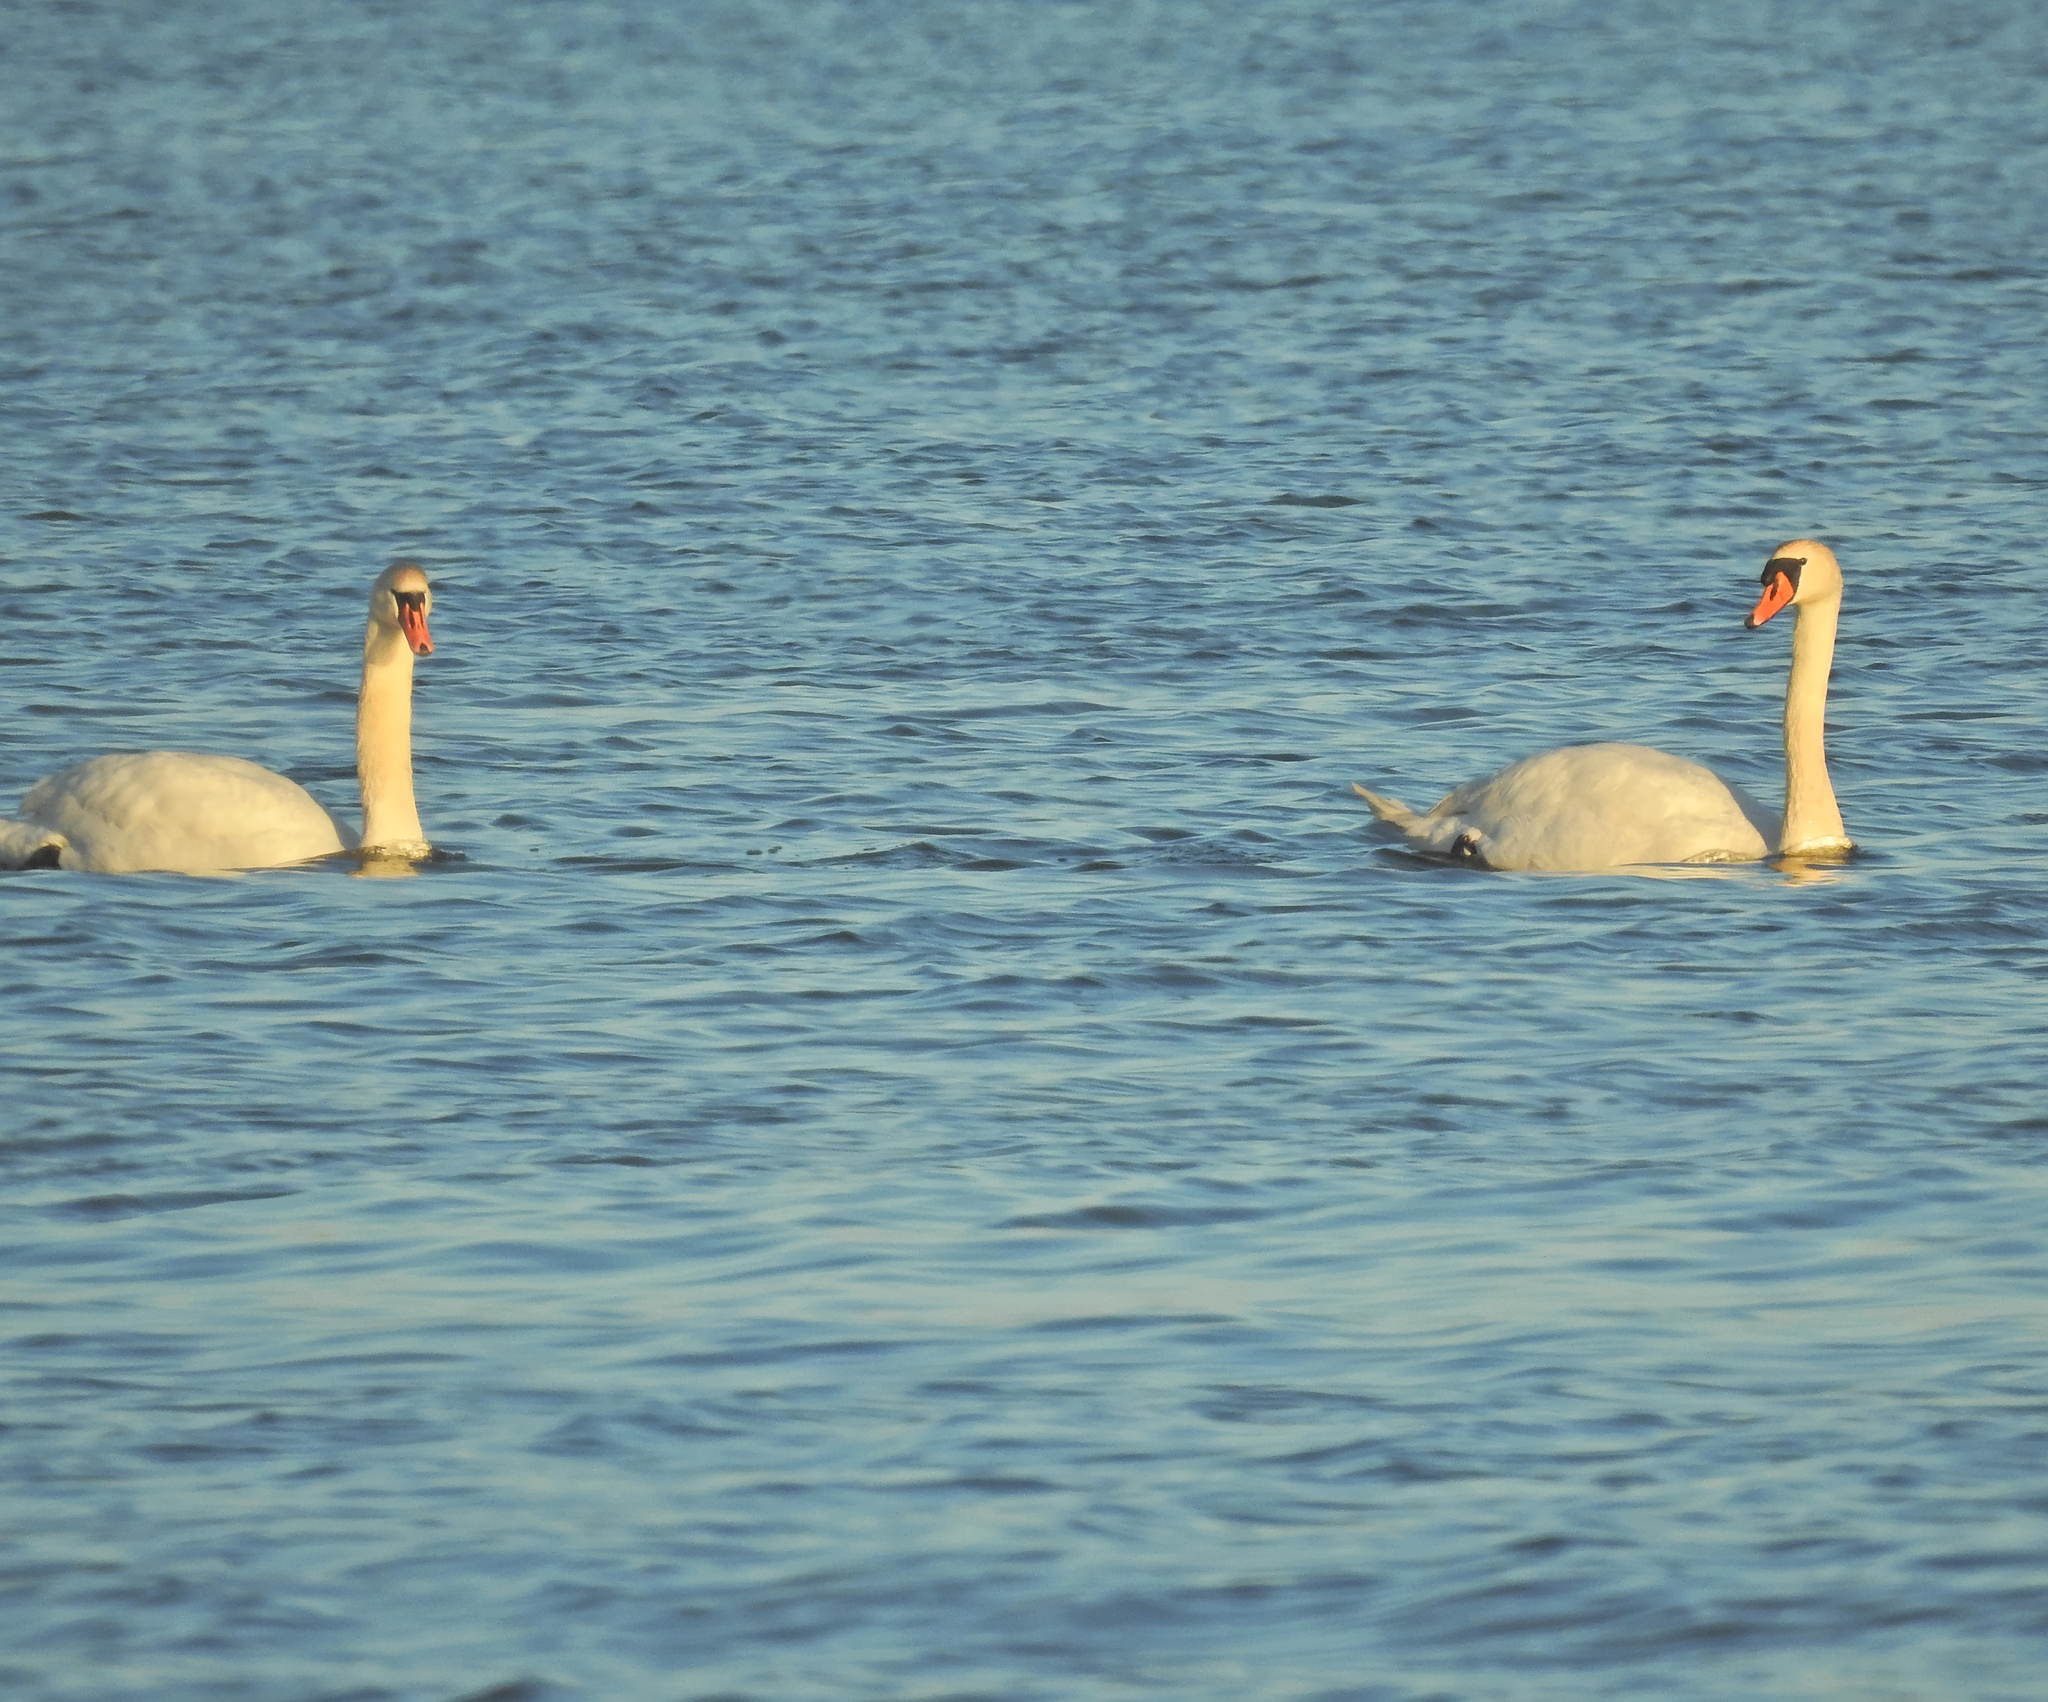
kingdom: Animalia
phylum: Chordata
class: Aves
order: Anseriformes
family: Anatidae
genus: Cygnus
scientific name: Cygnus olor
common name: Mute swan
